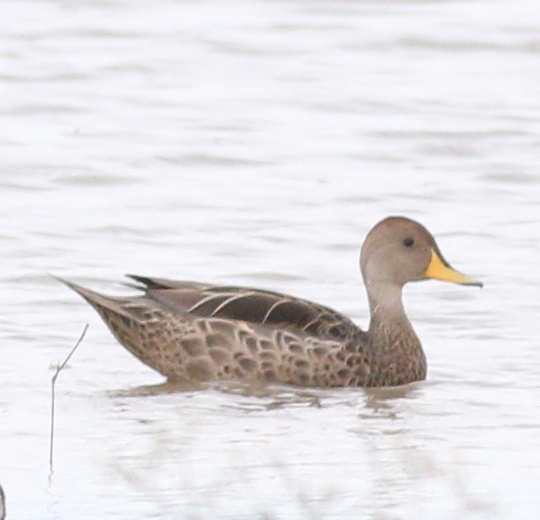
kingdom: Animalia
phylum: Chordata
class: Aves
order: Anseriformes
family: Anatidae
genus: Anas
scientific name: Anas georgica
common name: Yellow-billed pintail
